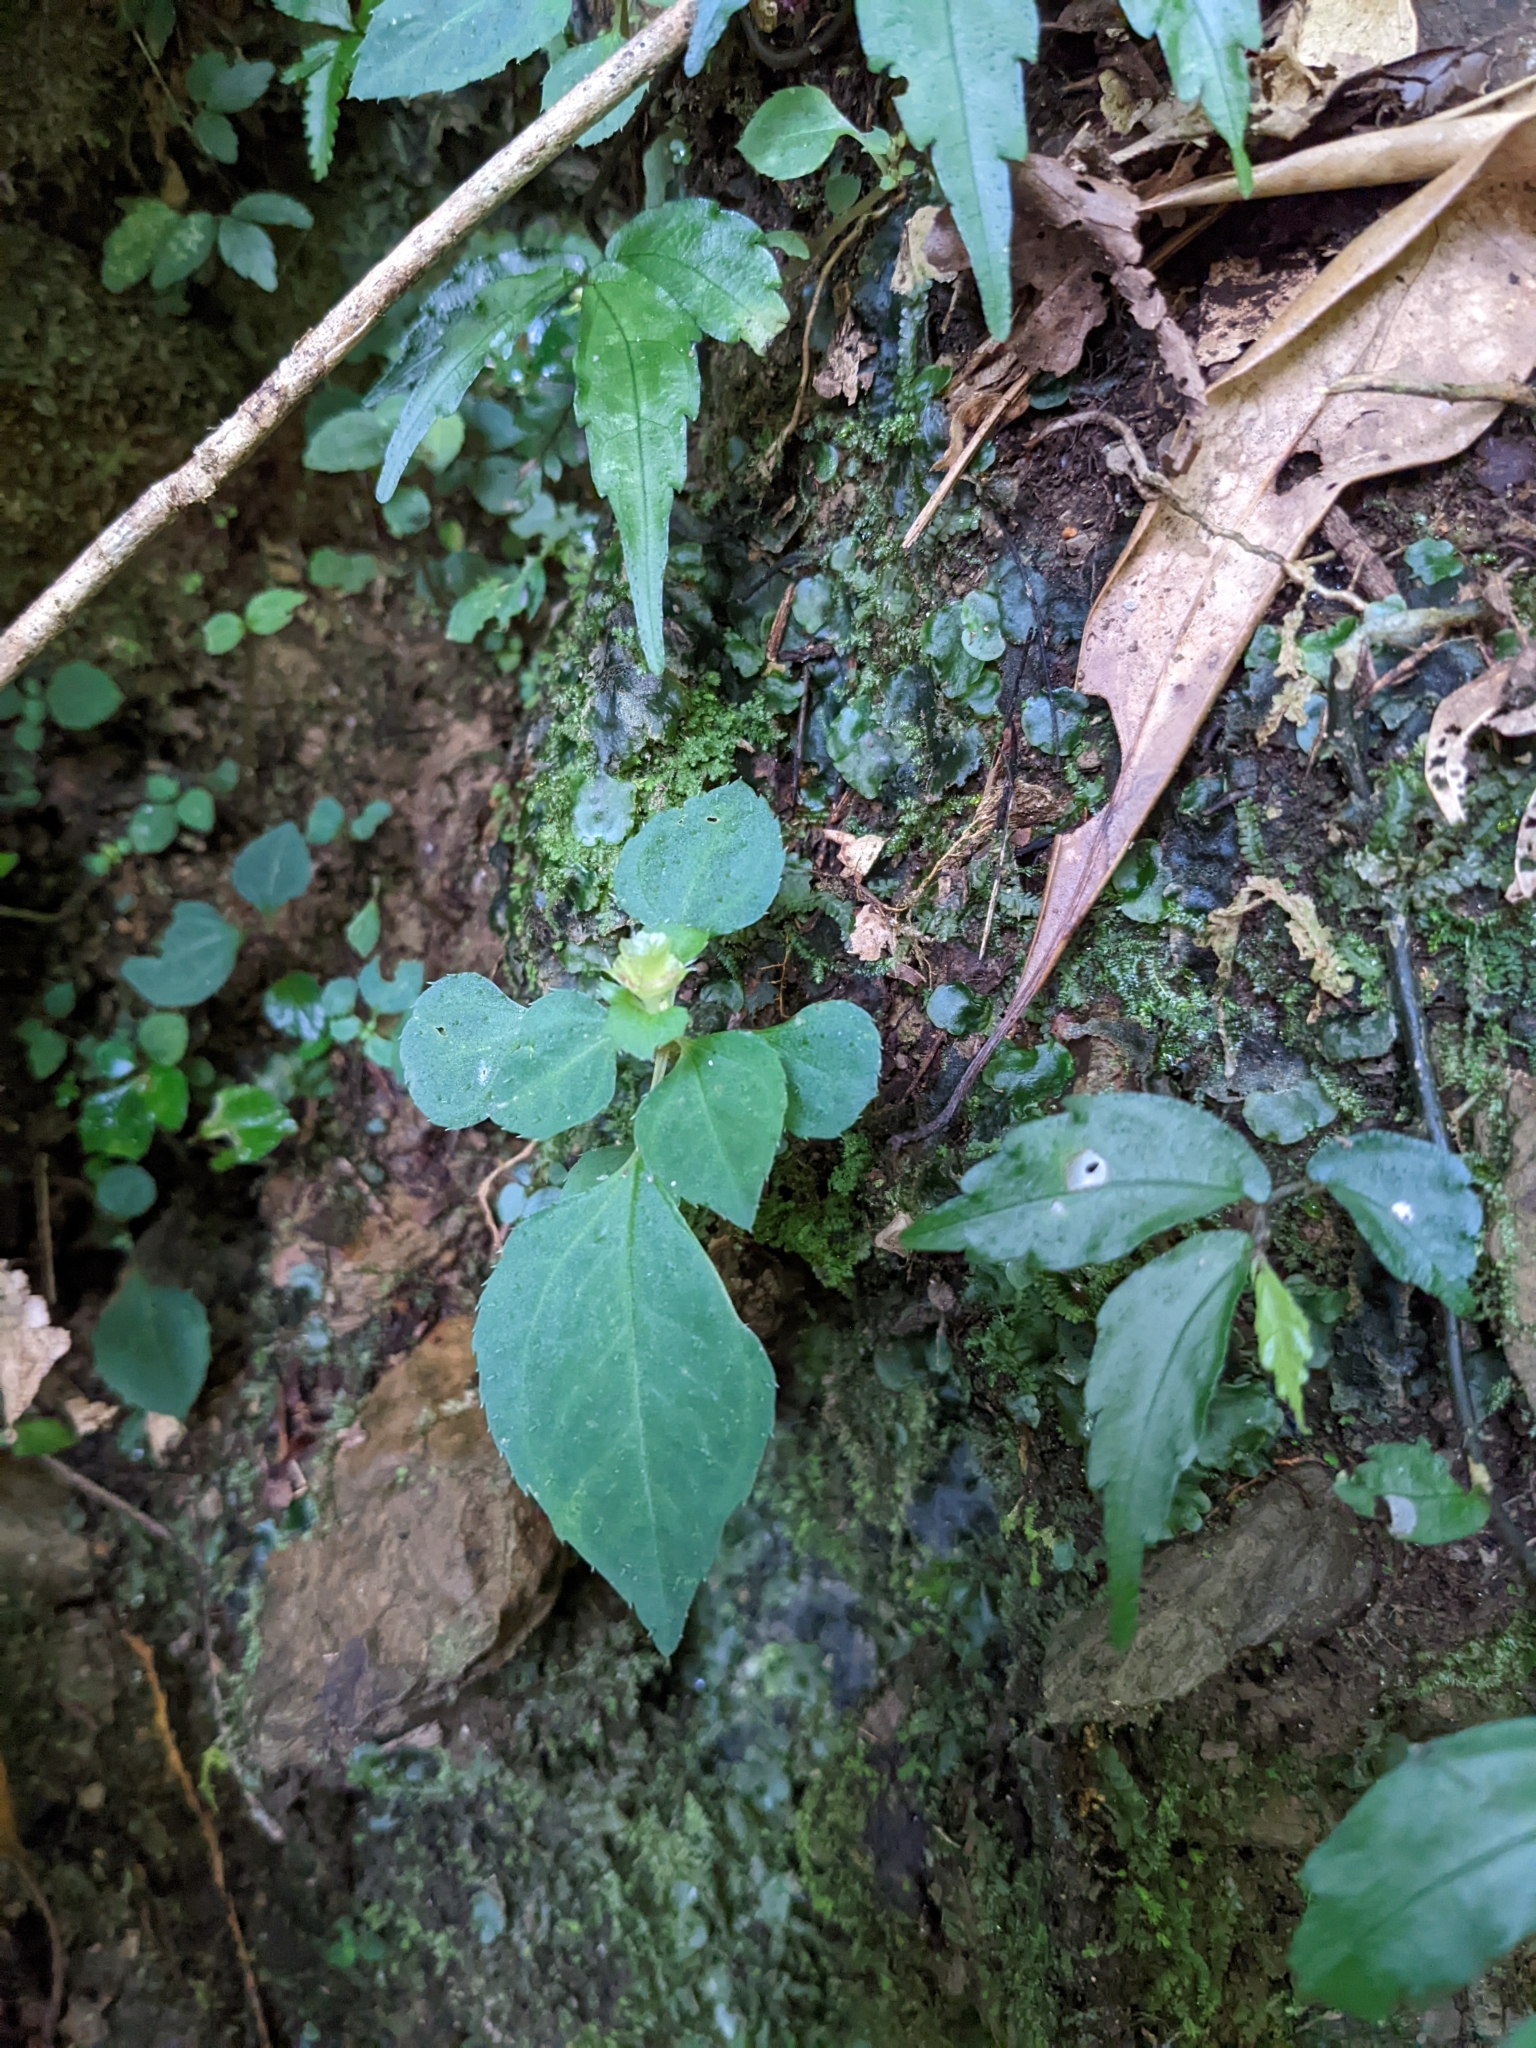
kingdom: Plantae
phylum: Tracheophyta
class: Magnoliopsida
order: Myrtales
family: Melastomataceae
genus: Sarcopyramis
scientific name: Sarcopyramis napalensis
